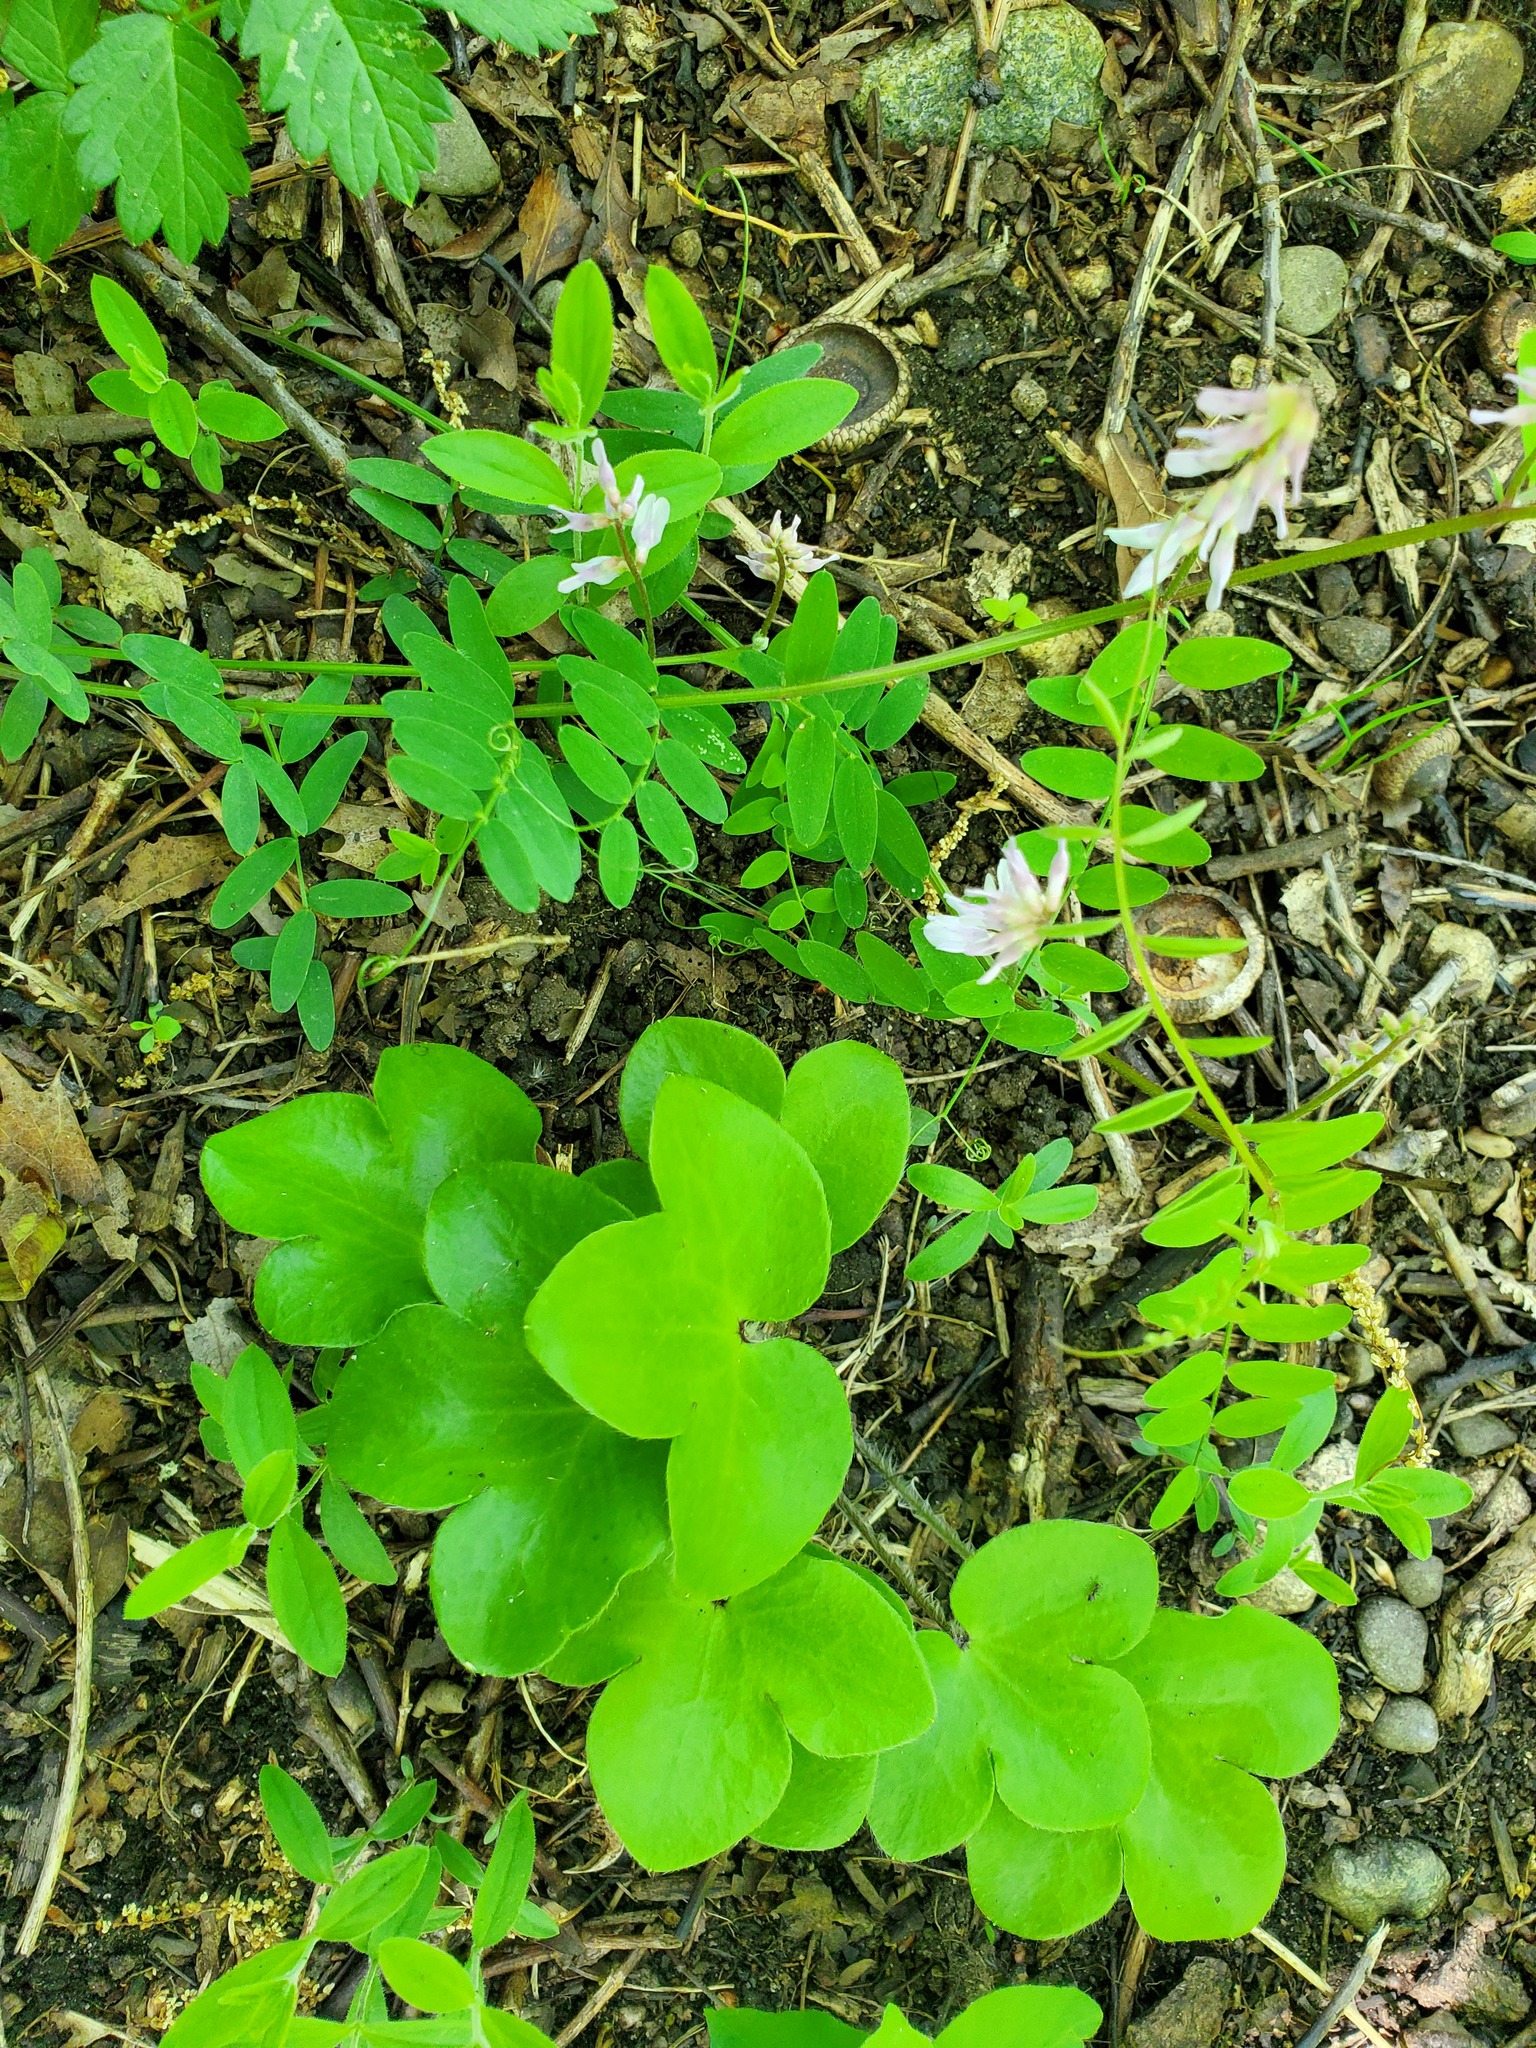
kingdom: Plantae
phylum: Tracheophyta
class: Magnoliopsida
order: Ranunculales
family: Ranunculaceae
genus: Hepatica
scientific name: Hepatica americana
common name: American hepatica
